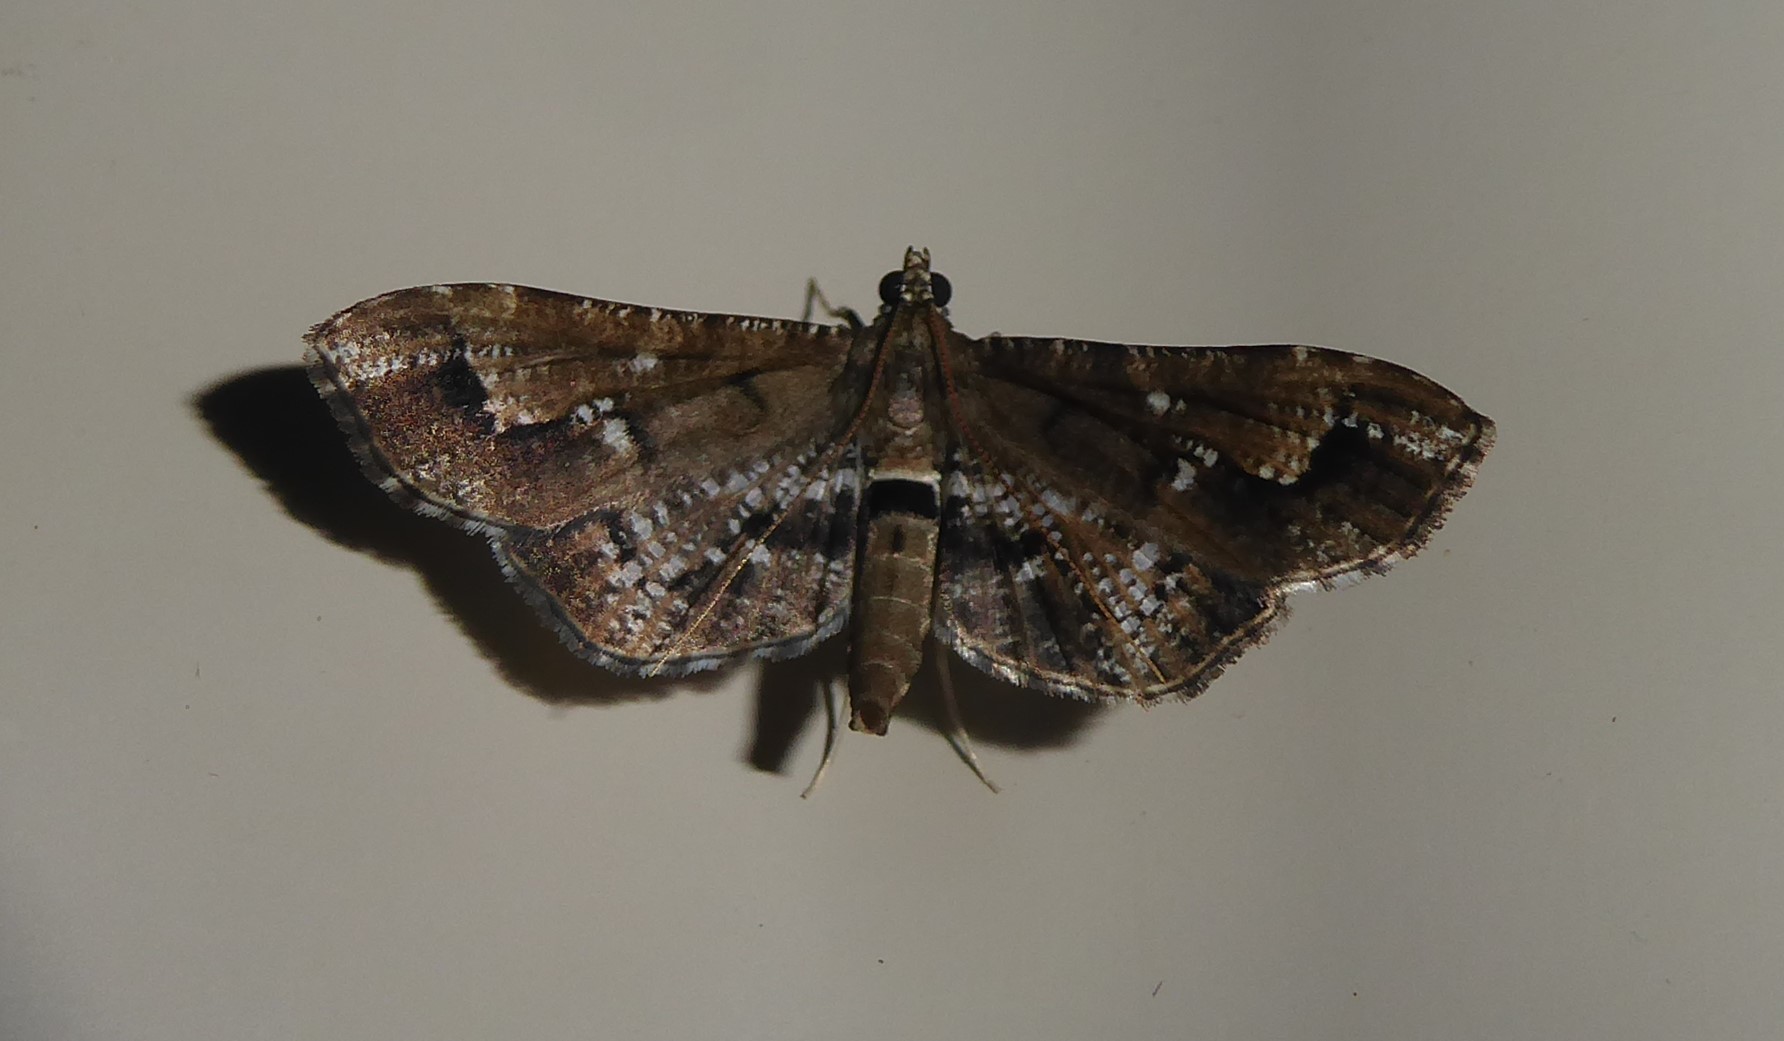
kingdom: Animalia
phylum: Arthropoda
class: Insecta
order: Lepidoptera
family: Crambidae
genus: Merodictya
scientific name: Merodictya marmorata
